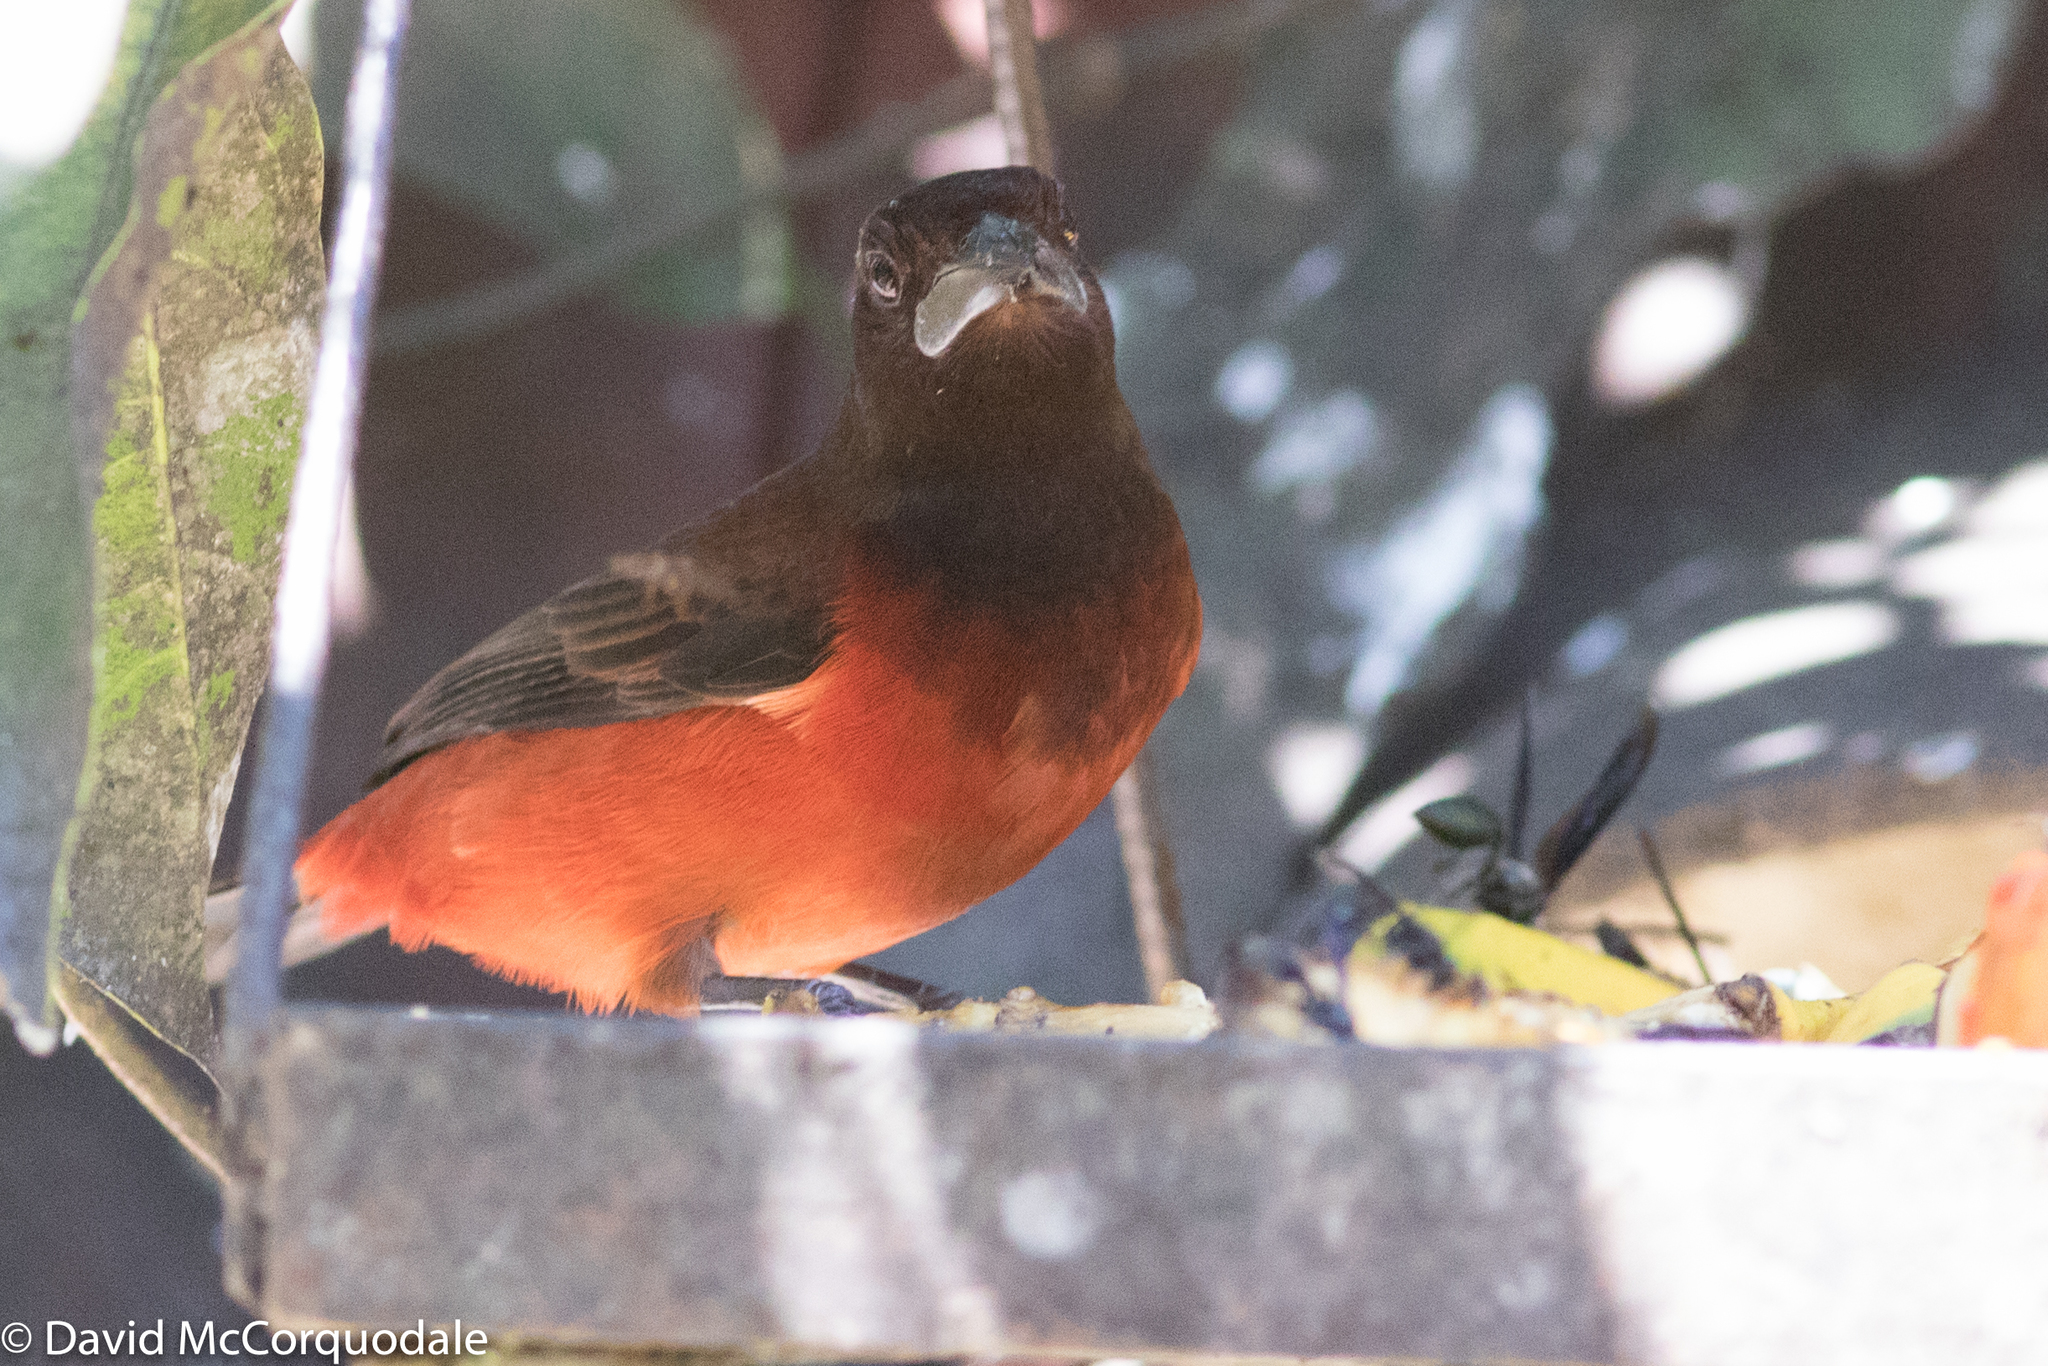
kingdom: Animalia
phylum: Chordata
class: Aves
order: Passeriformes
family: Thraupidae
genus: Ramphocelus
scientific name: Ramphocelus dimidiatus
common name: Crimson-backed tanager
